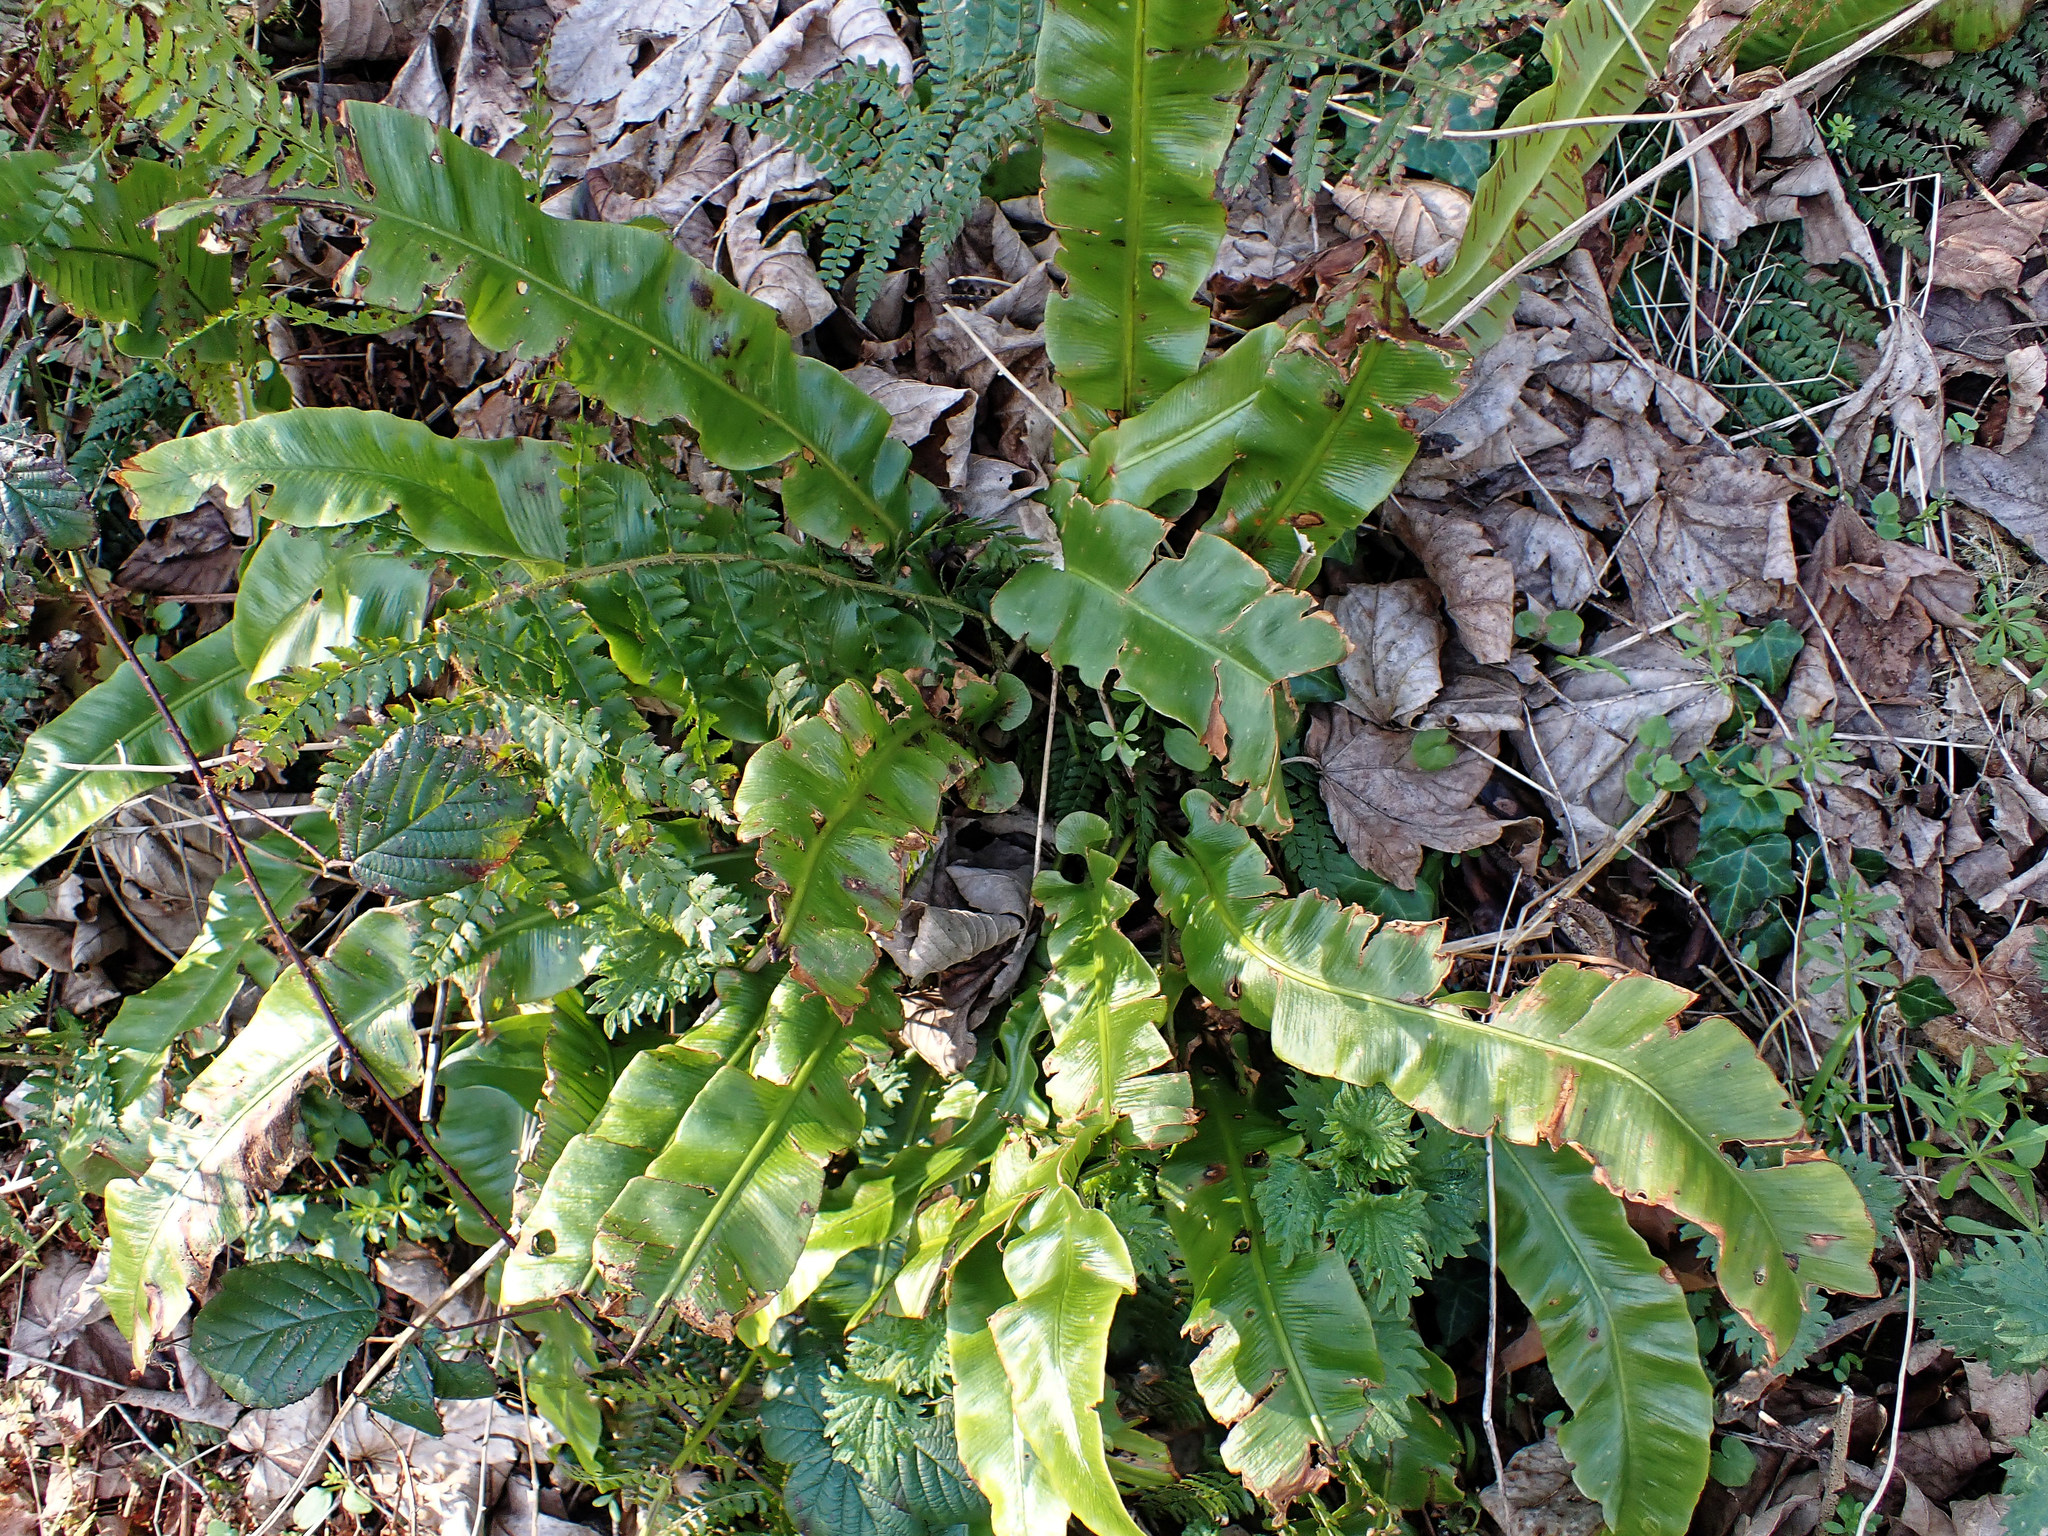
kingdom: Plantae
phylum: Tracheophyta
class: Polypodiopsida
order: Polypodiales
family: Aspleniaceae
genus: Asplenium
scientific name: Asplenium scolopendrium
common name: Hart's-tongue fern
